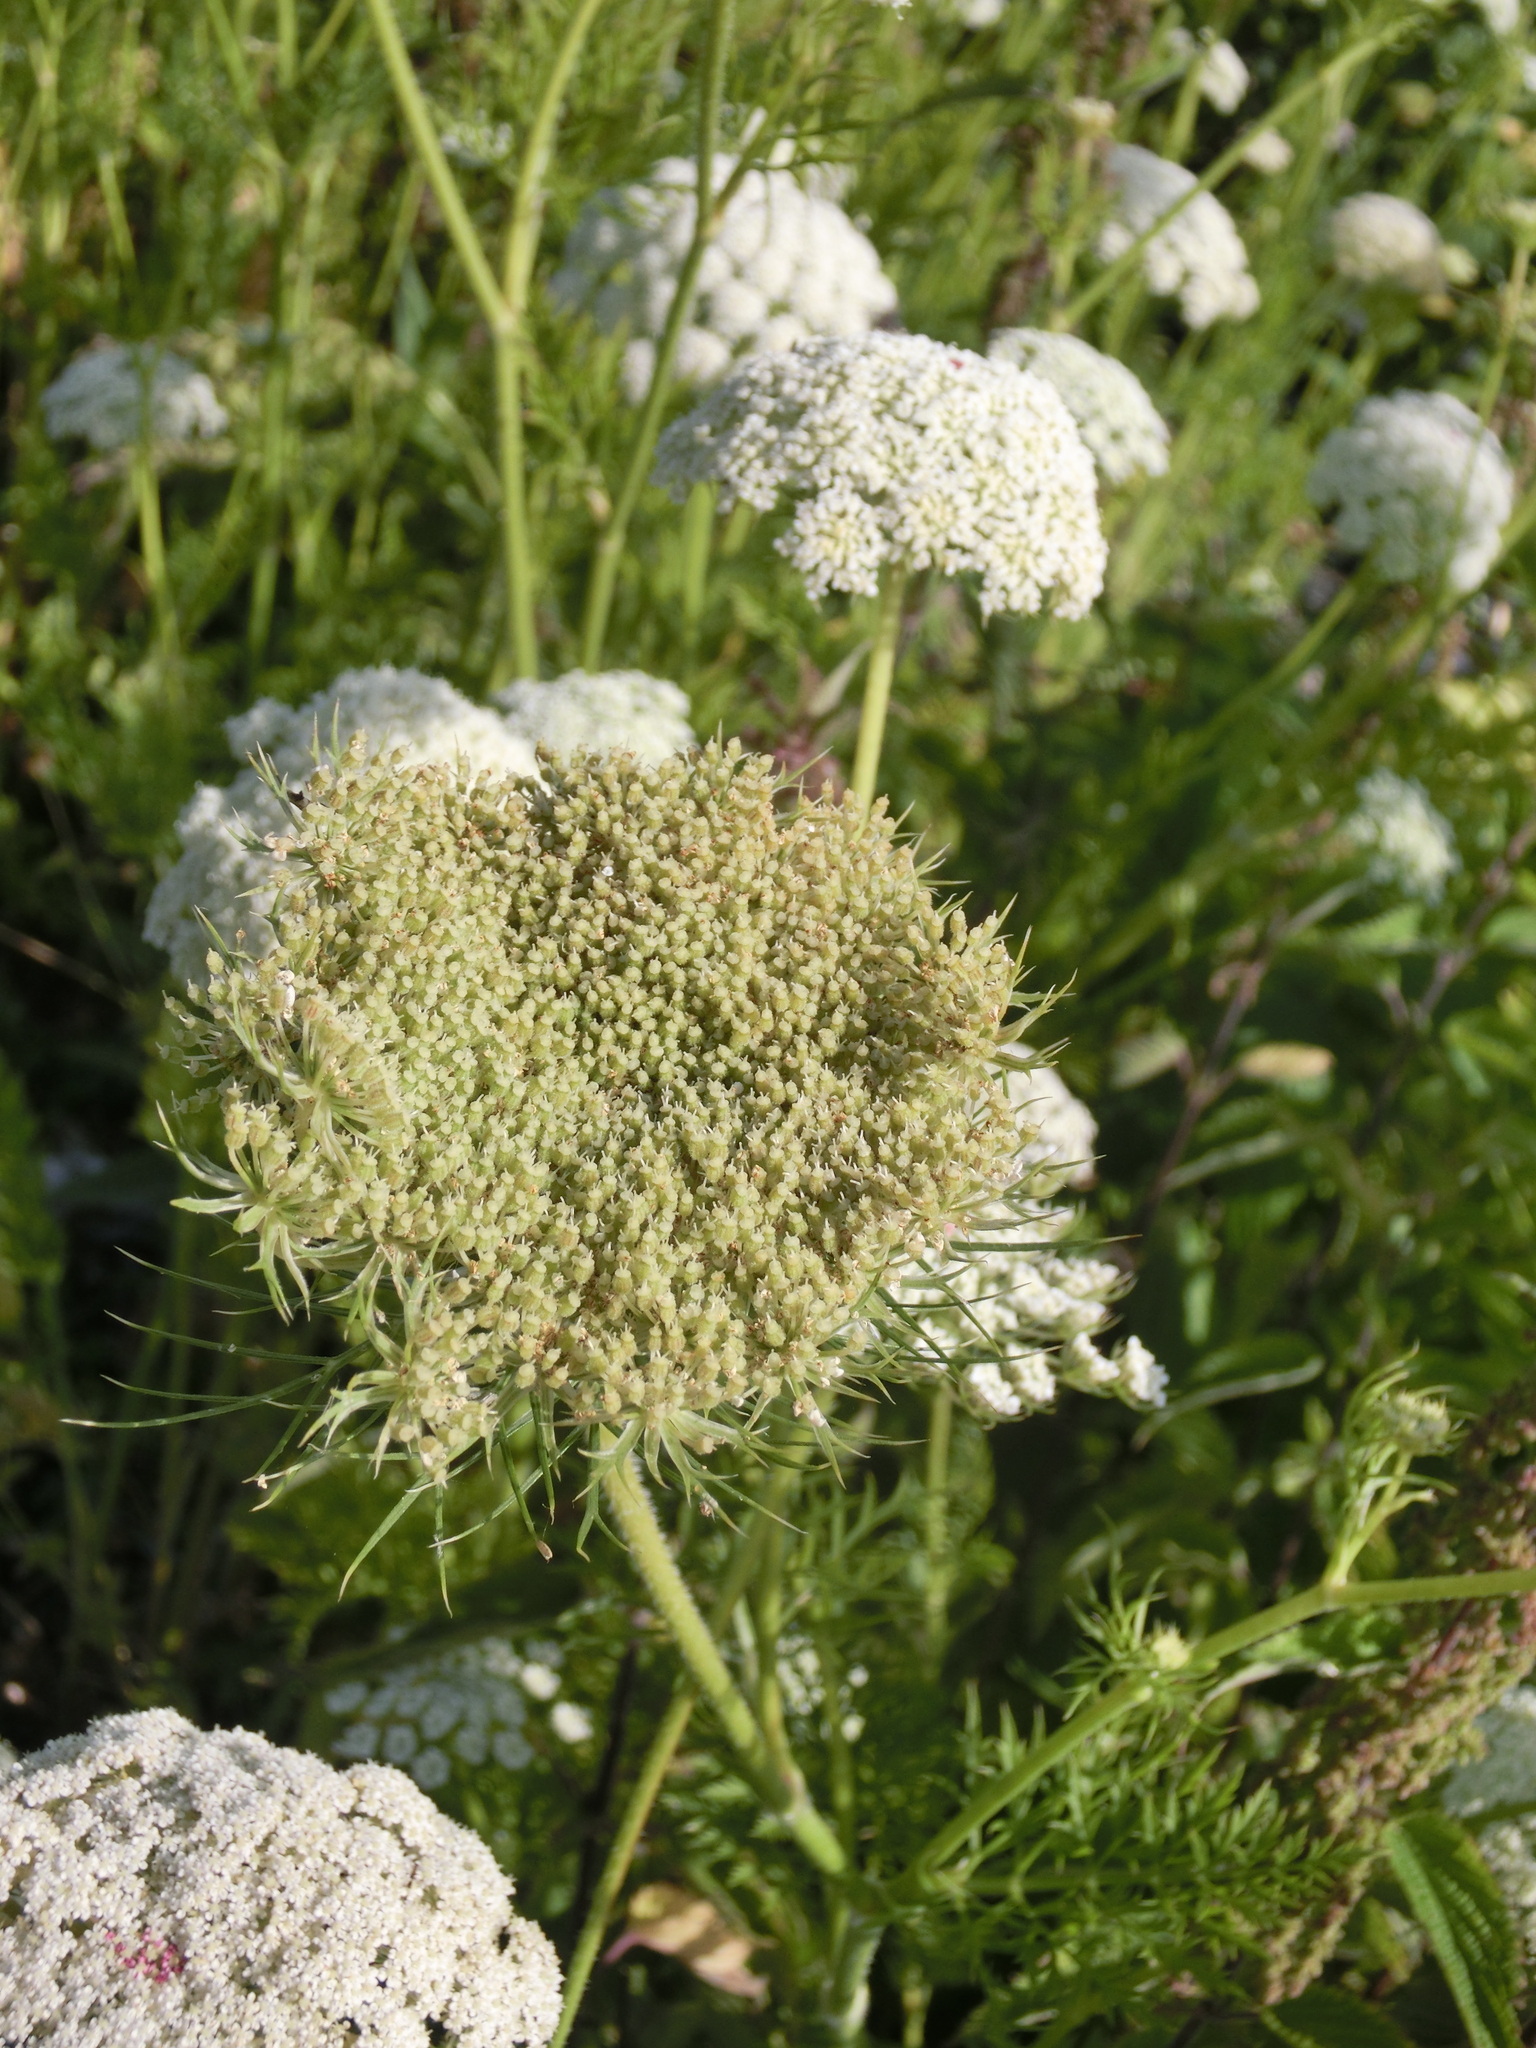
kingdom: Plantae
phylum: Tracheophyta
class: Magnoliopsida
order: Apiales
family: Apiaceae
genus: Daucus
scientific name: Daucus carota
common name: Wild carrot
